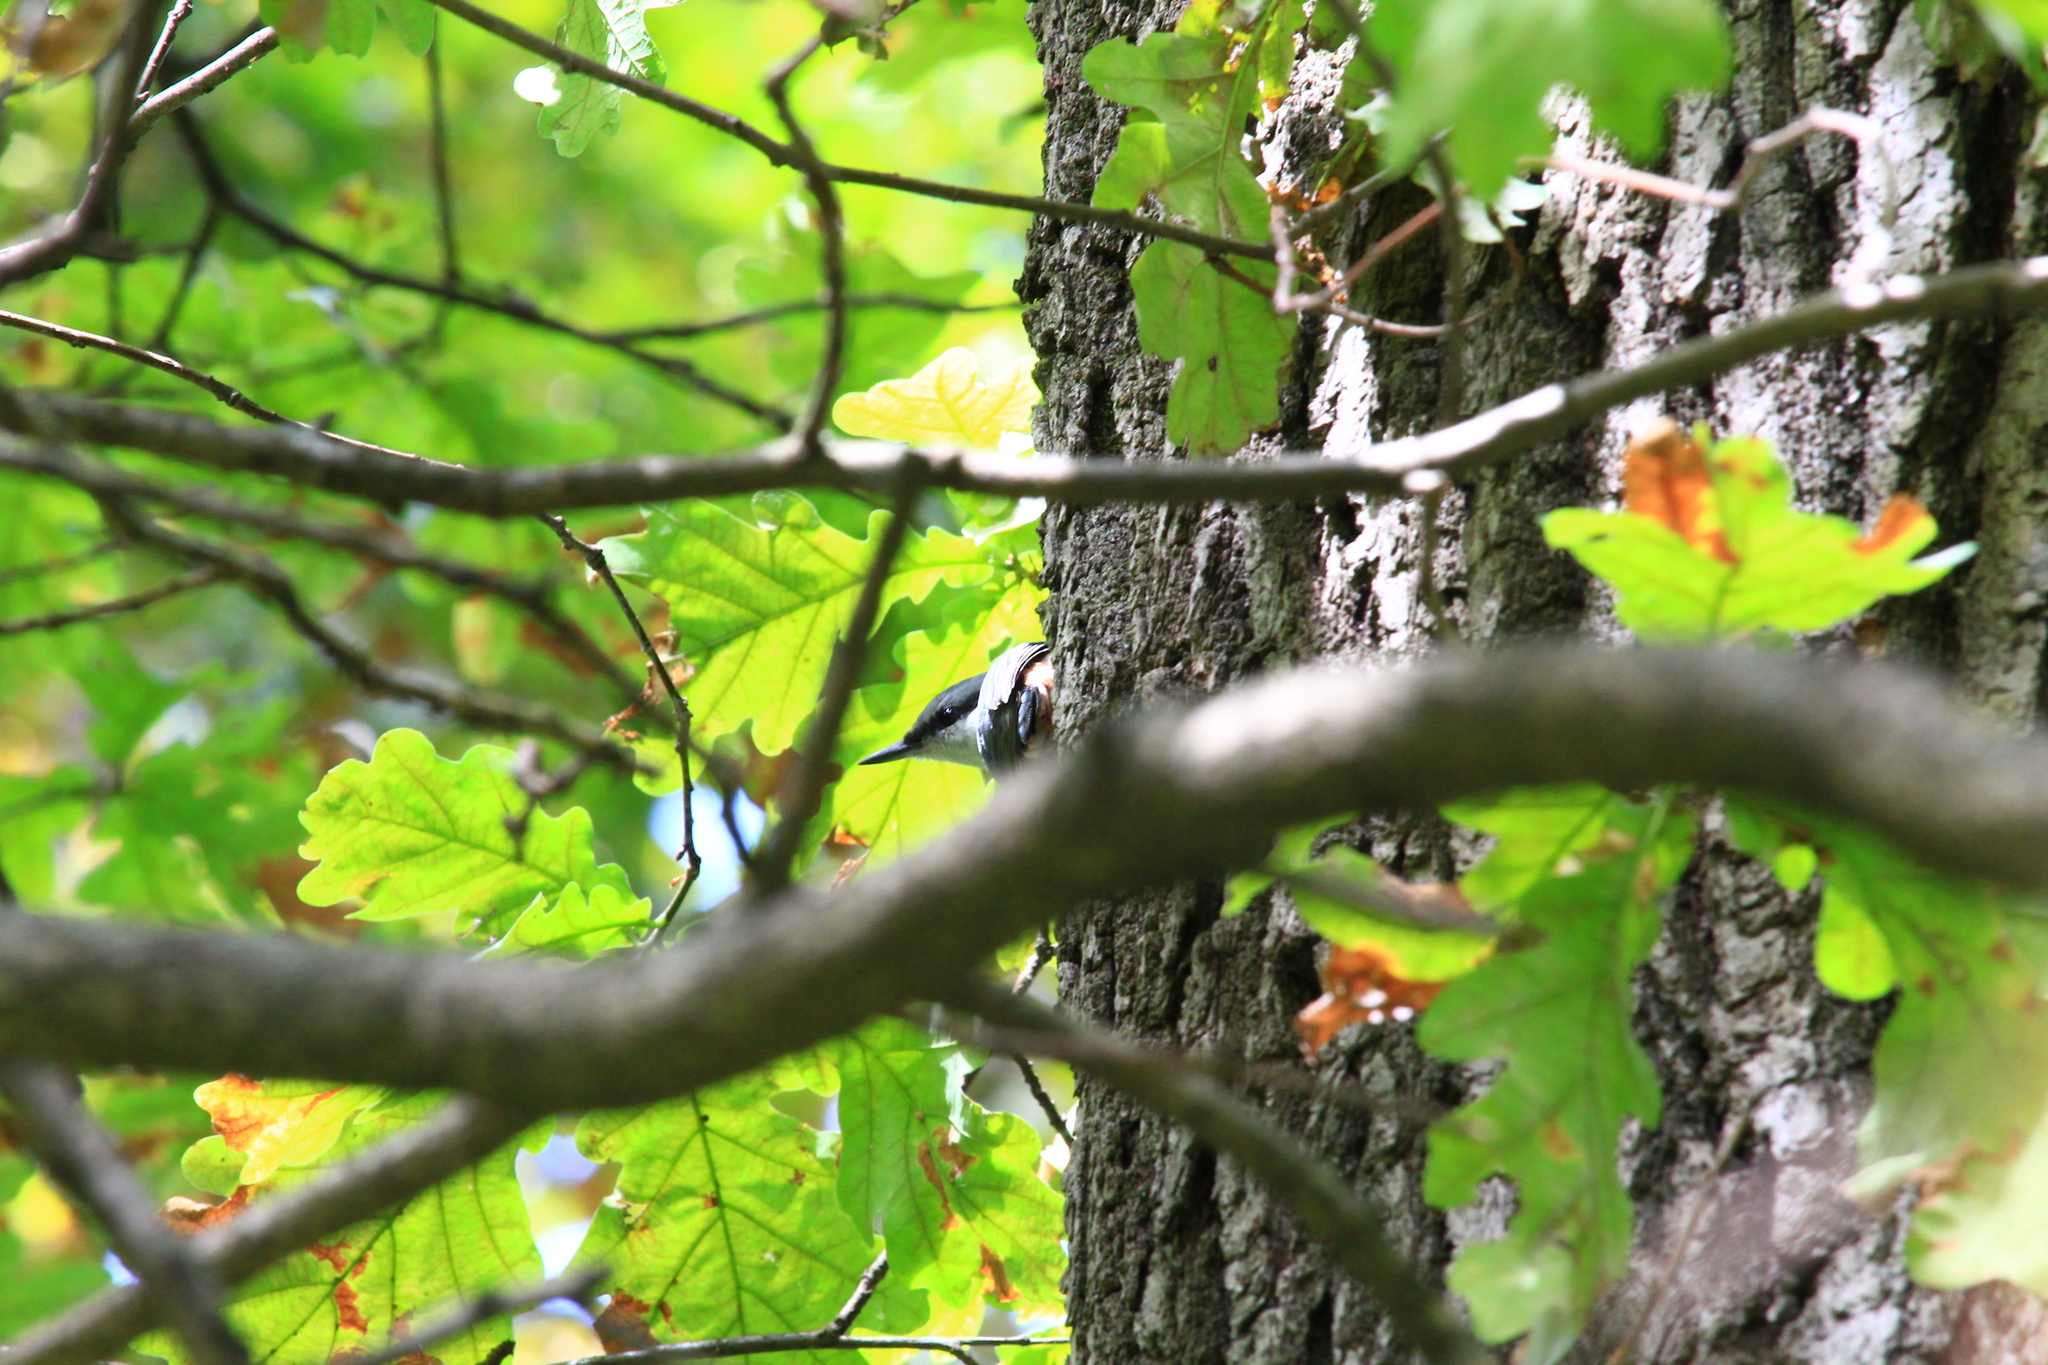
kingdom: Animalia
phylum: Chordata
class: Aves
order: Passeriformes
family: Sittidae
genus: Sitta
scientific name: Sitta europaea
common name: Eurasian nuthatch
